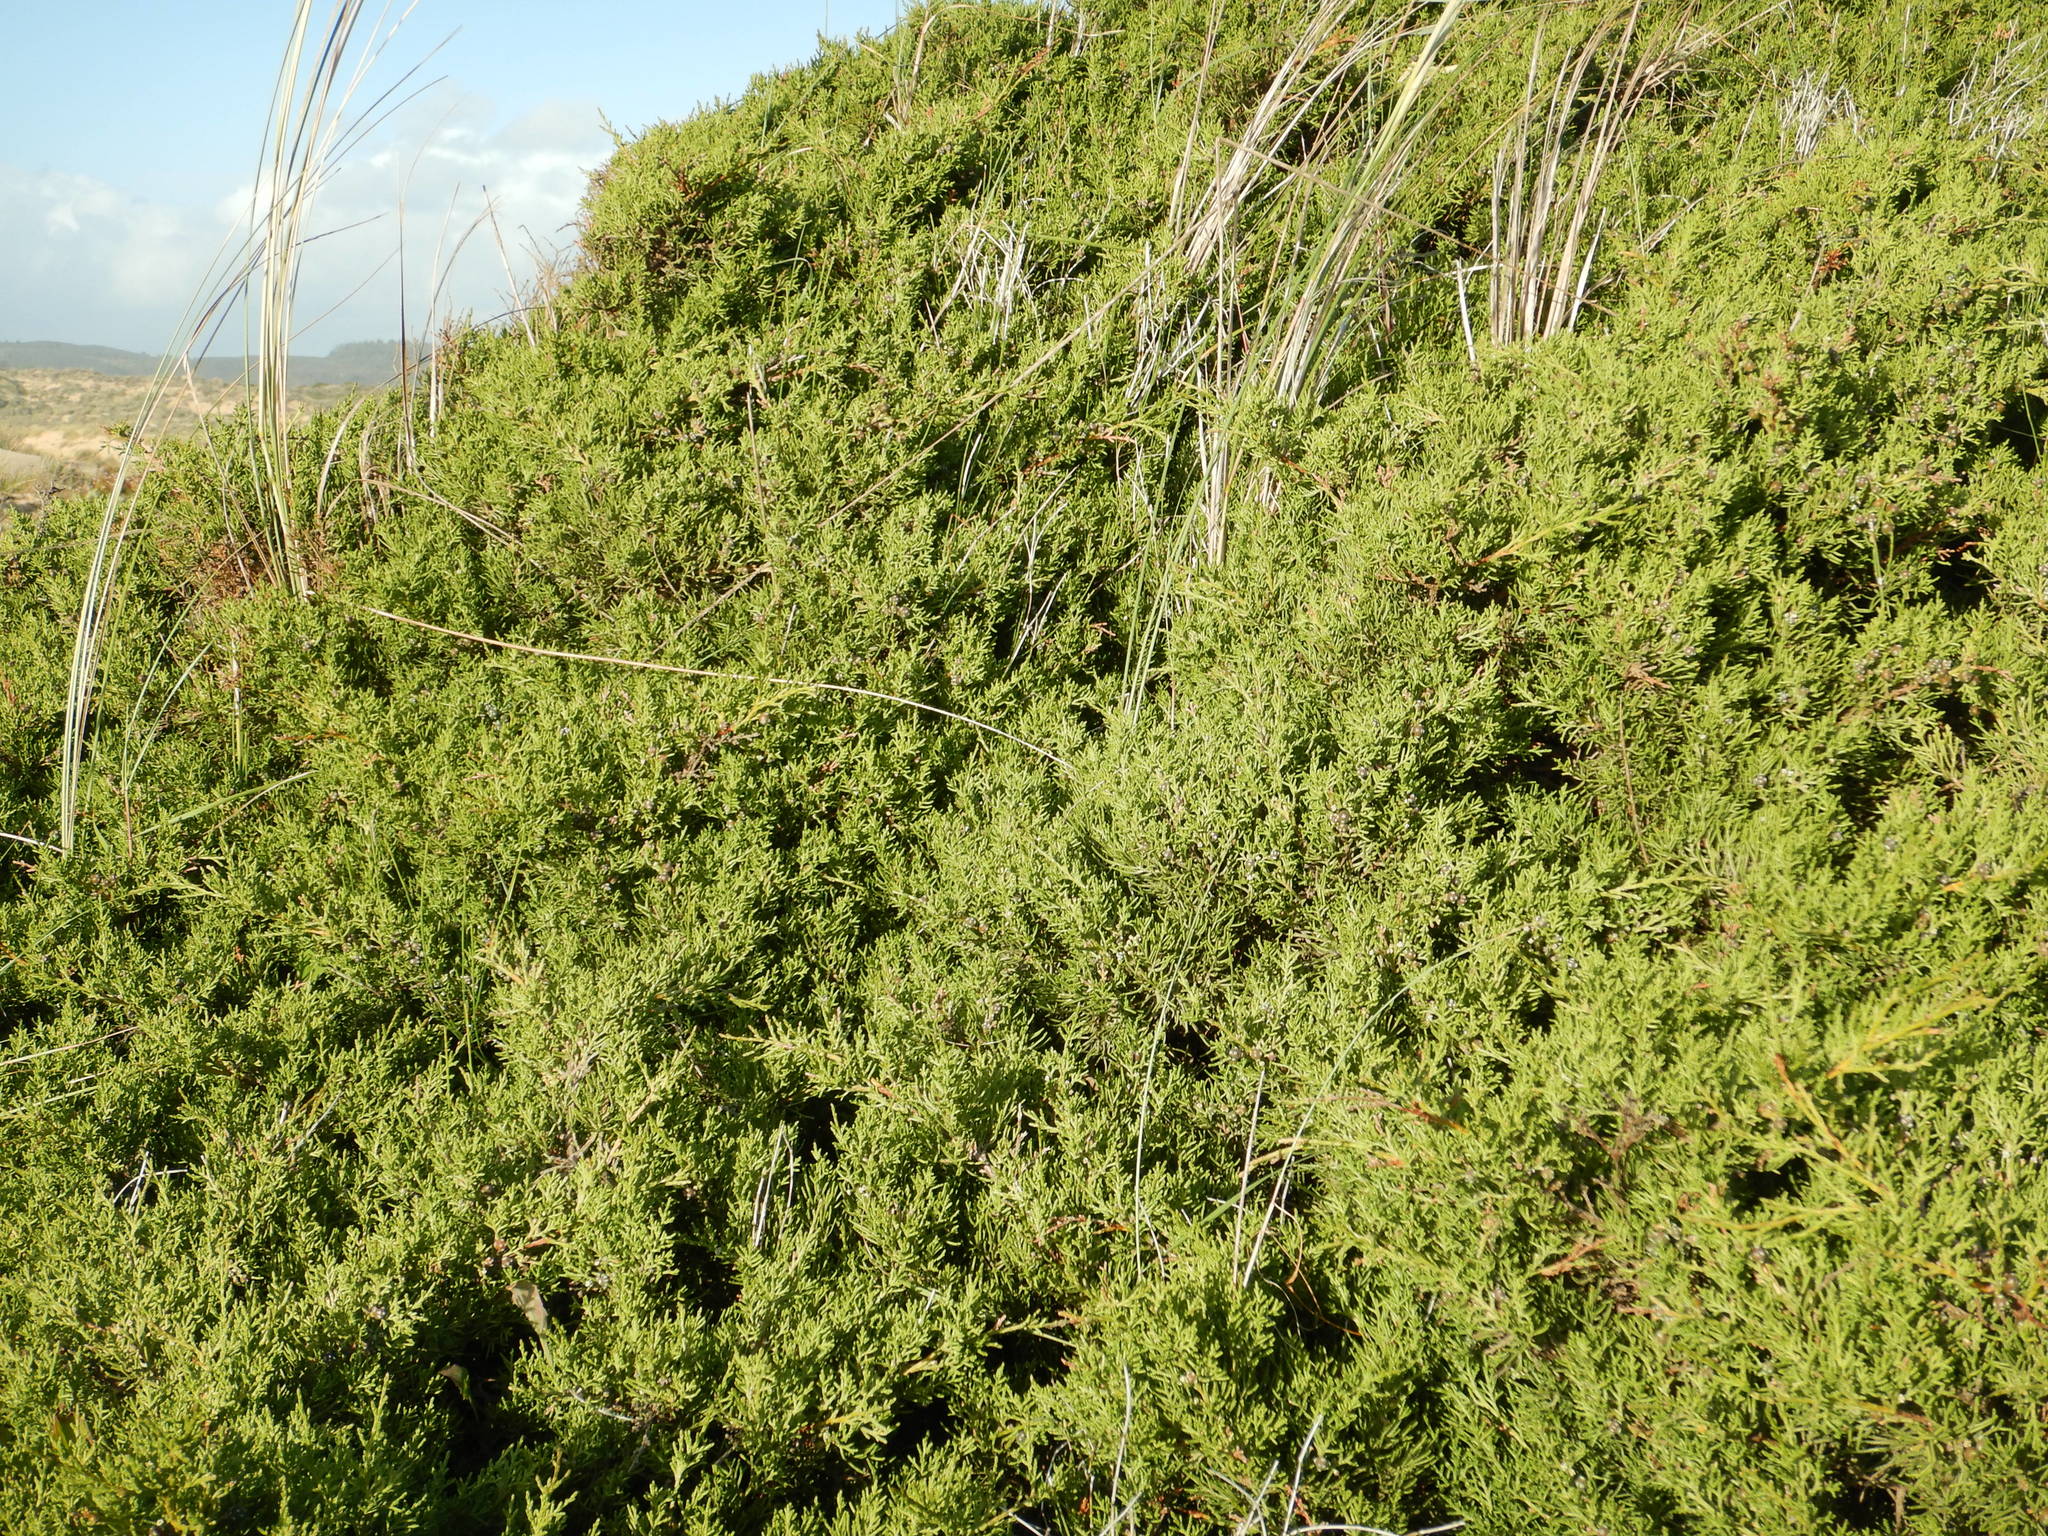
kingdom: Plantae
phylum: Tracheophyta
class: Pinopsida
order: Pinales
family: Cupressaceae
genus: Juniperus
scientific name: Juniperus phoenicea
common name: Phoenician juniper
